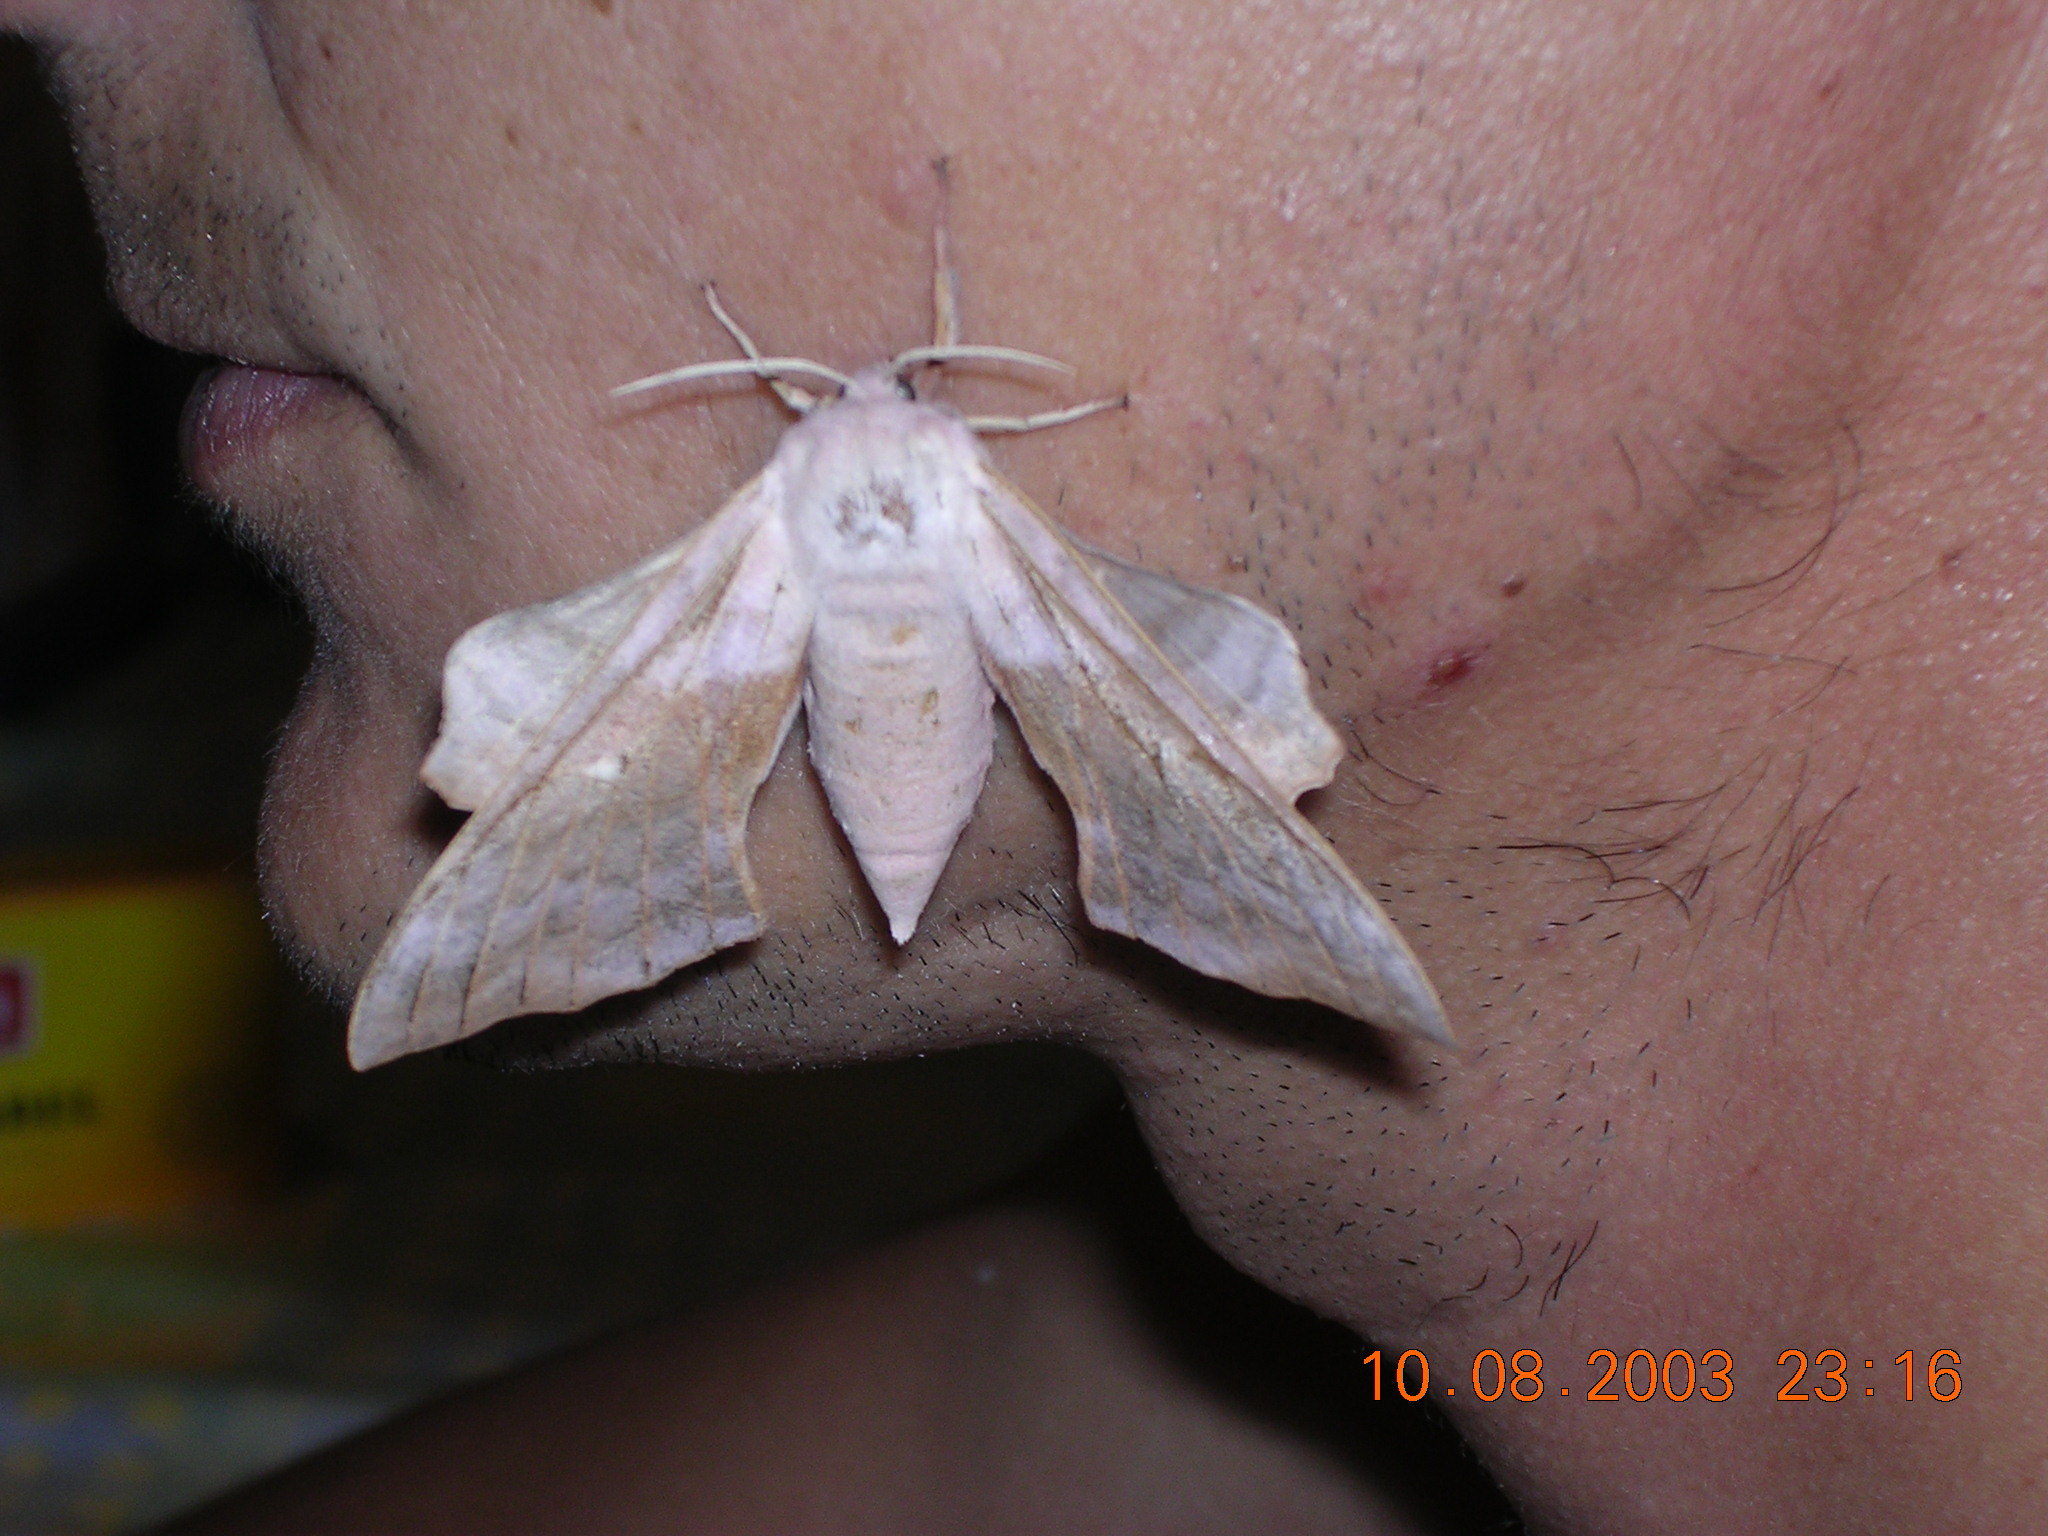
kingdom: Animalia
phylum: Arthropoda
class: Insecta
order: Lepidoptera
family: Sphingidae
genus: Laothoe
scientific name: Laothoe populi
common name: Poplar hawk-moth
